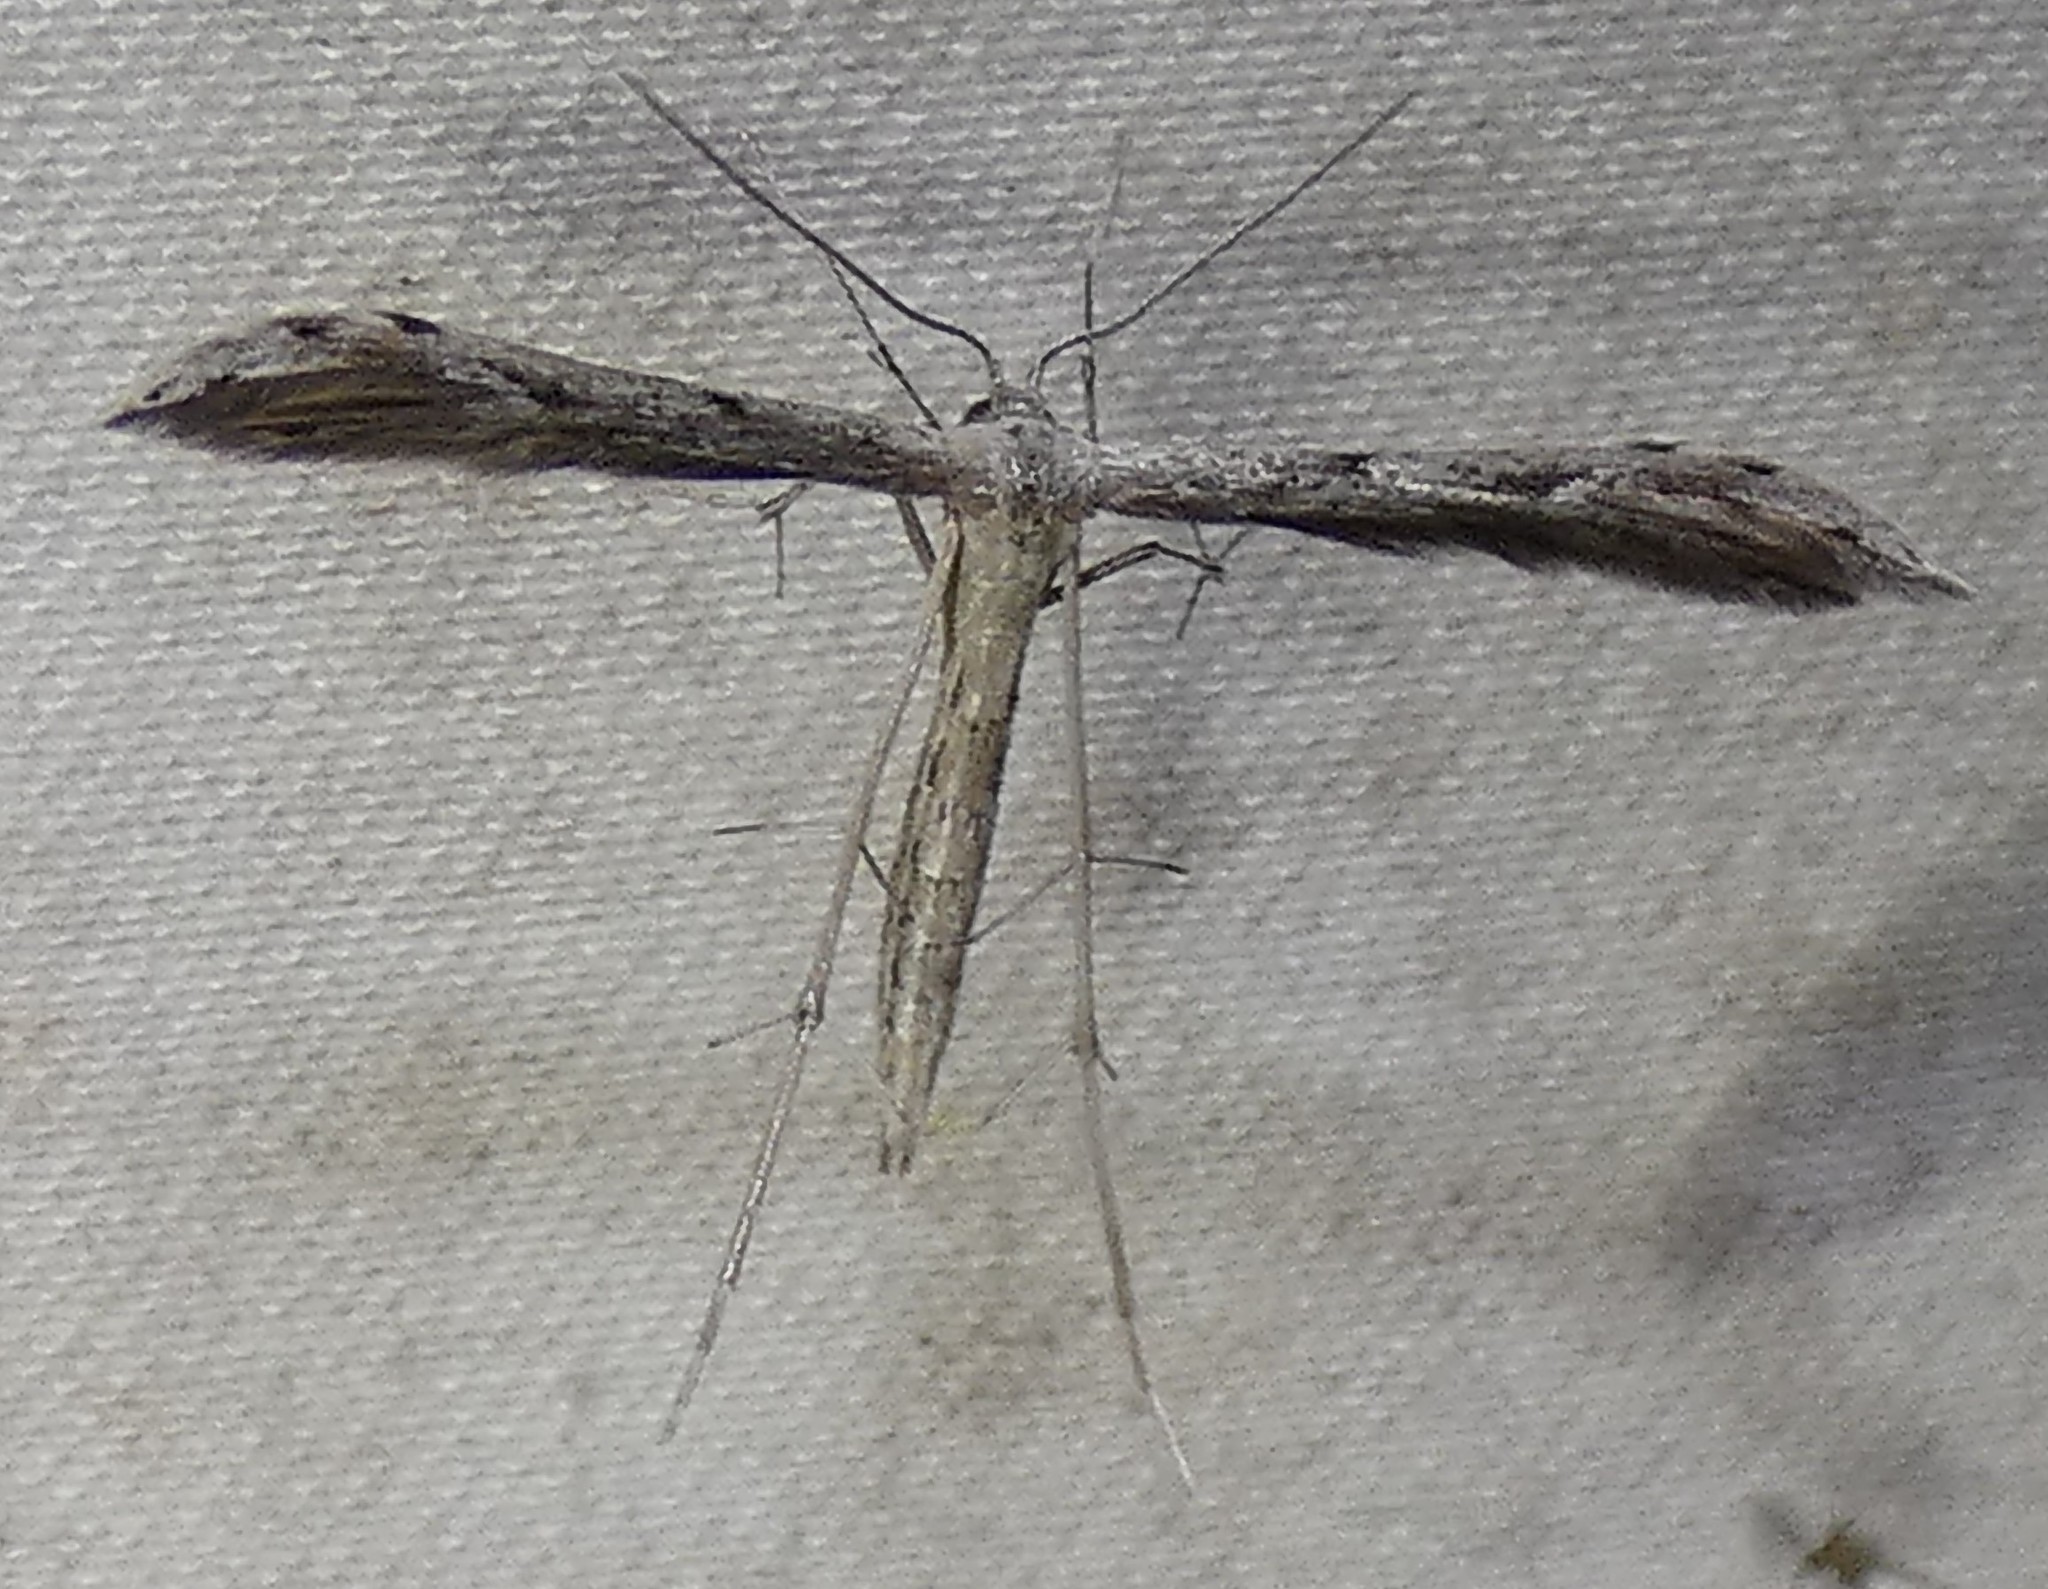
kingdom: Animalia
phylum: Arthropoda
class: Insecta
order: Lepidoptera
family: Pterophoridae
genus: Pselnophorus
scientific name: Pselnophorus belfragei
